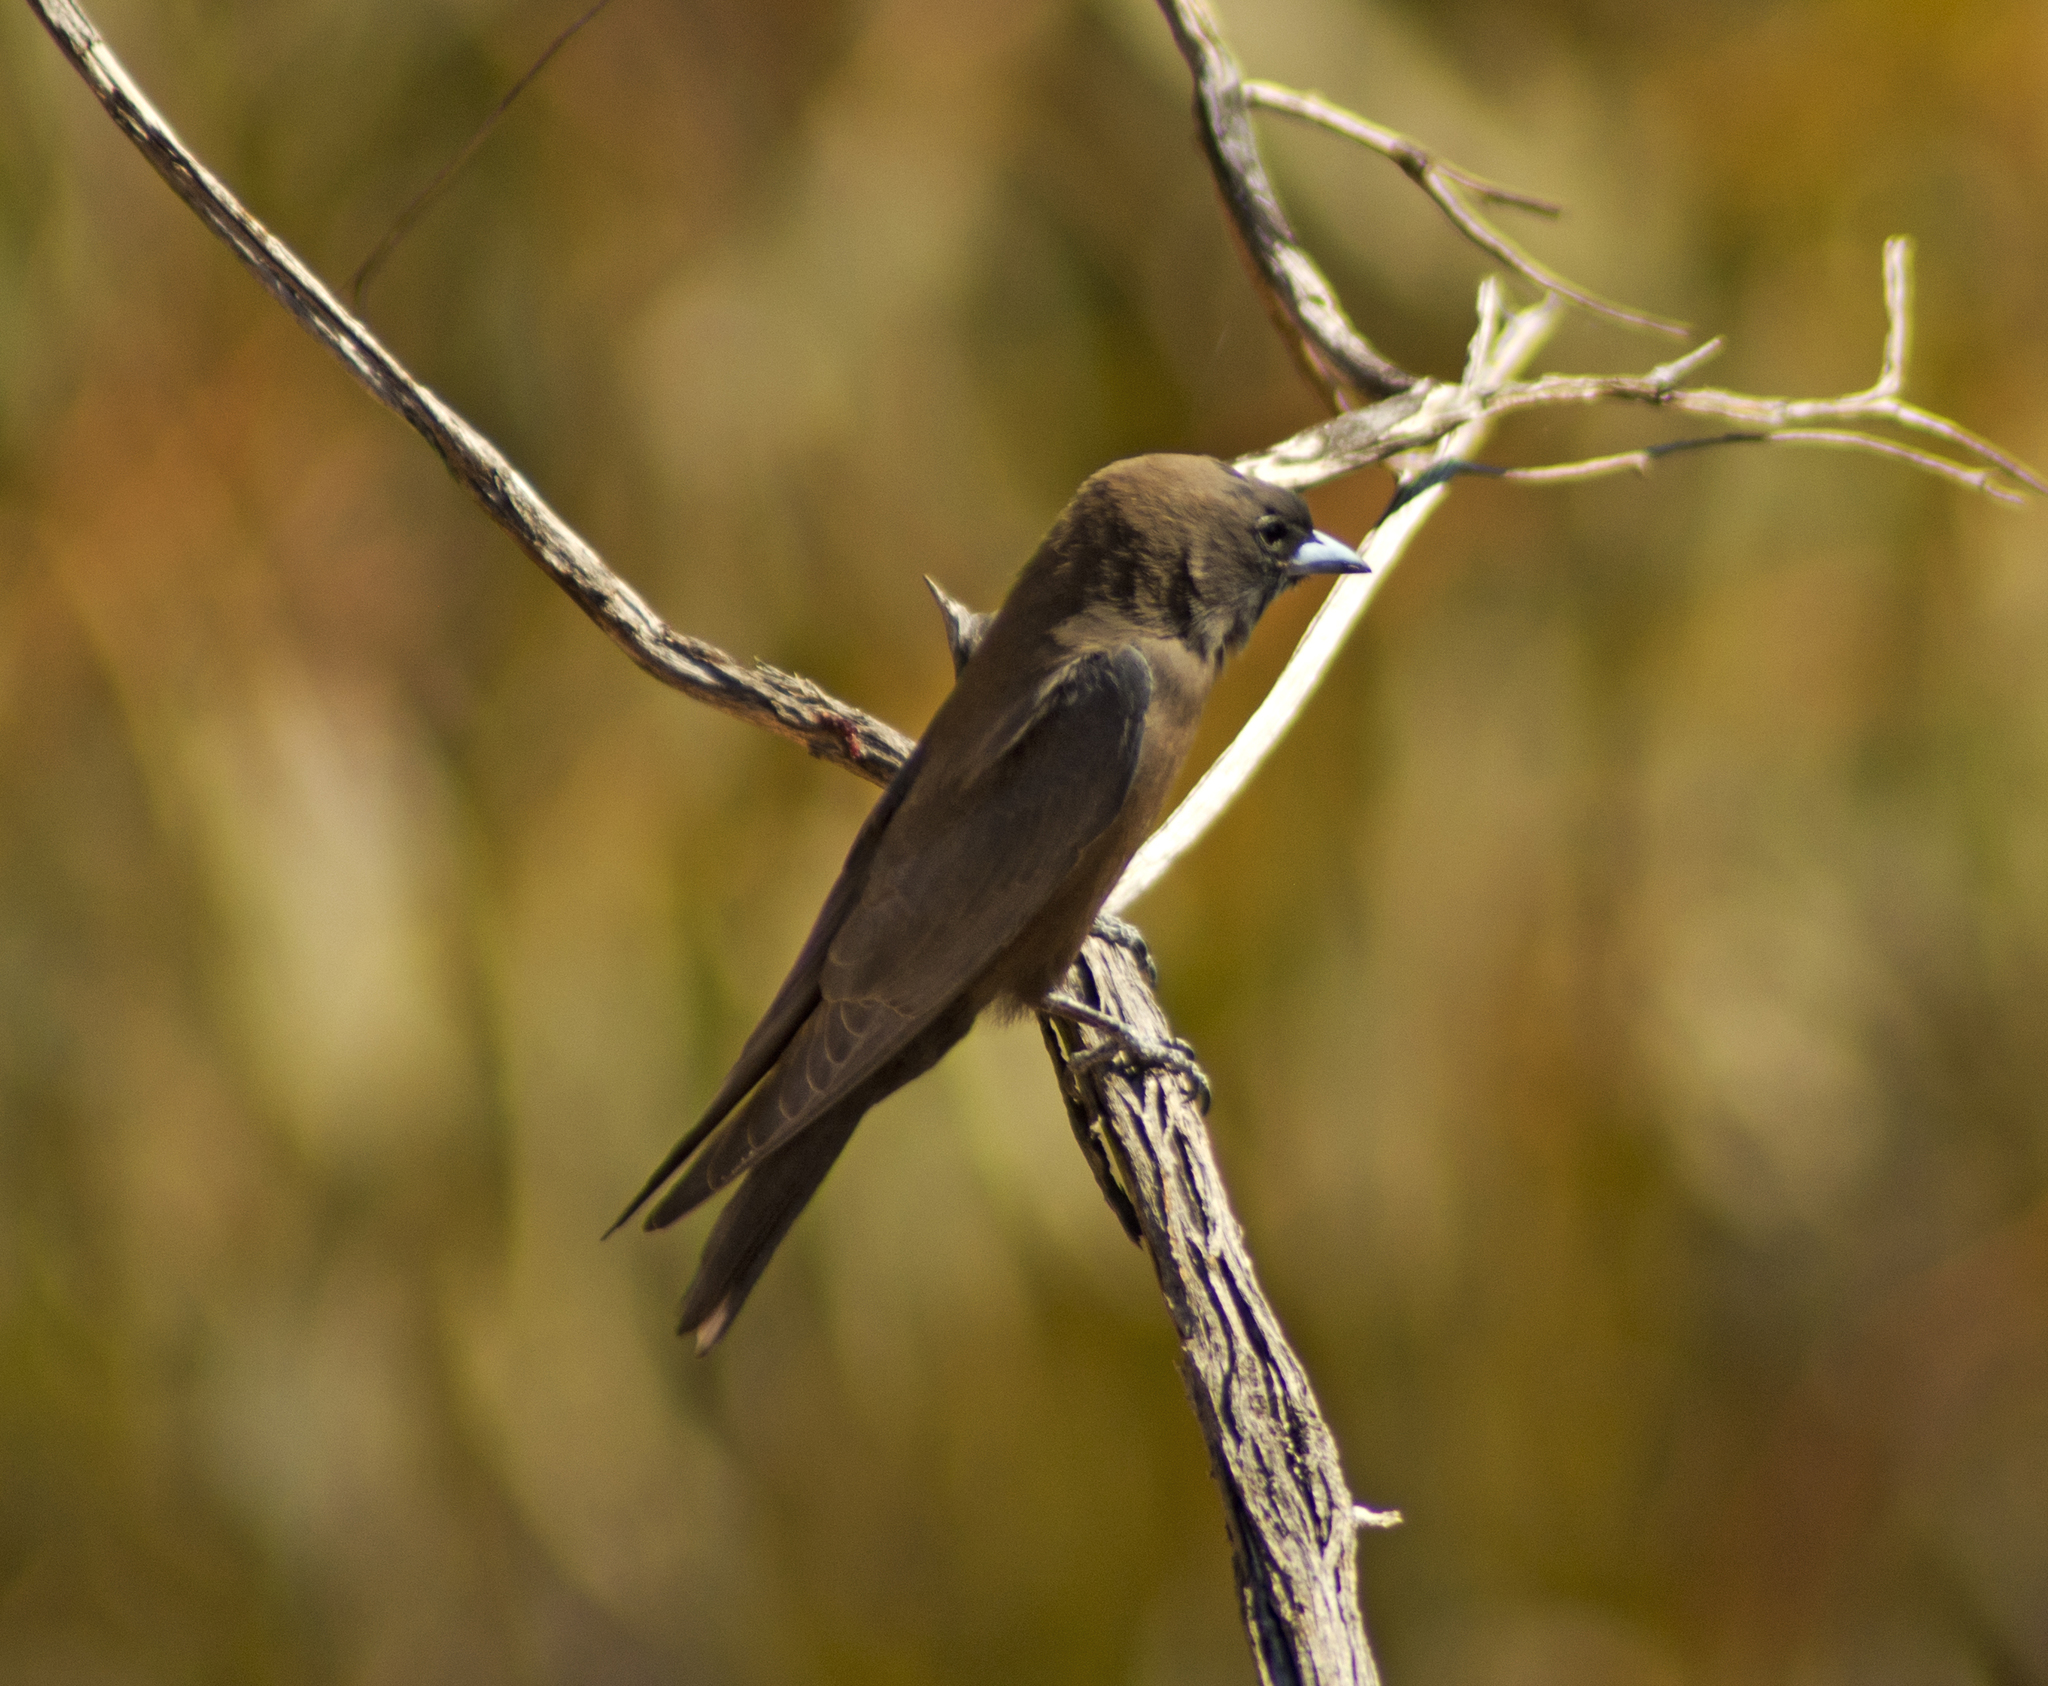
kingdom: Animalia
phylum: Chordata
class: Aves
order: Passeriformes
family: Artamidae
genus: Artamus
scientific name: Artamus minor
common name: Little woodswallow
